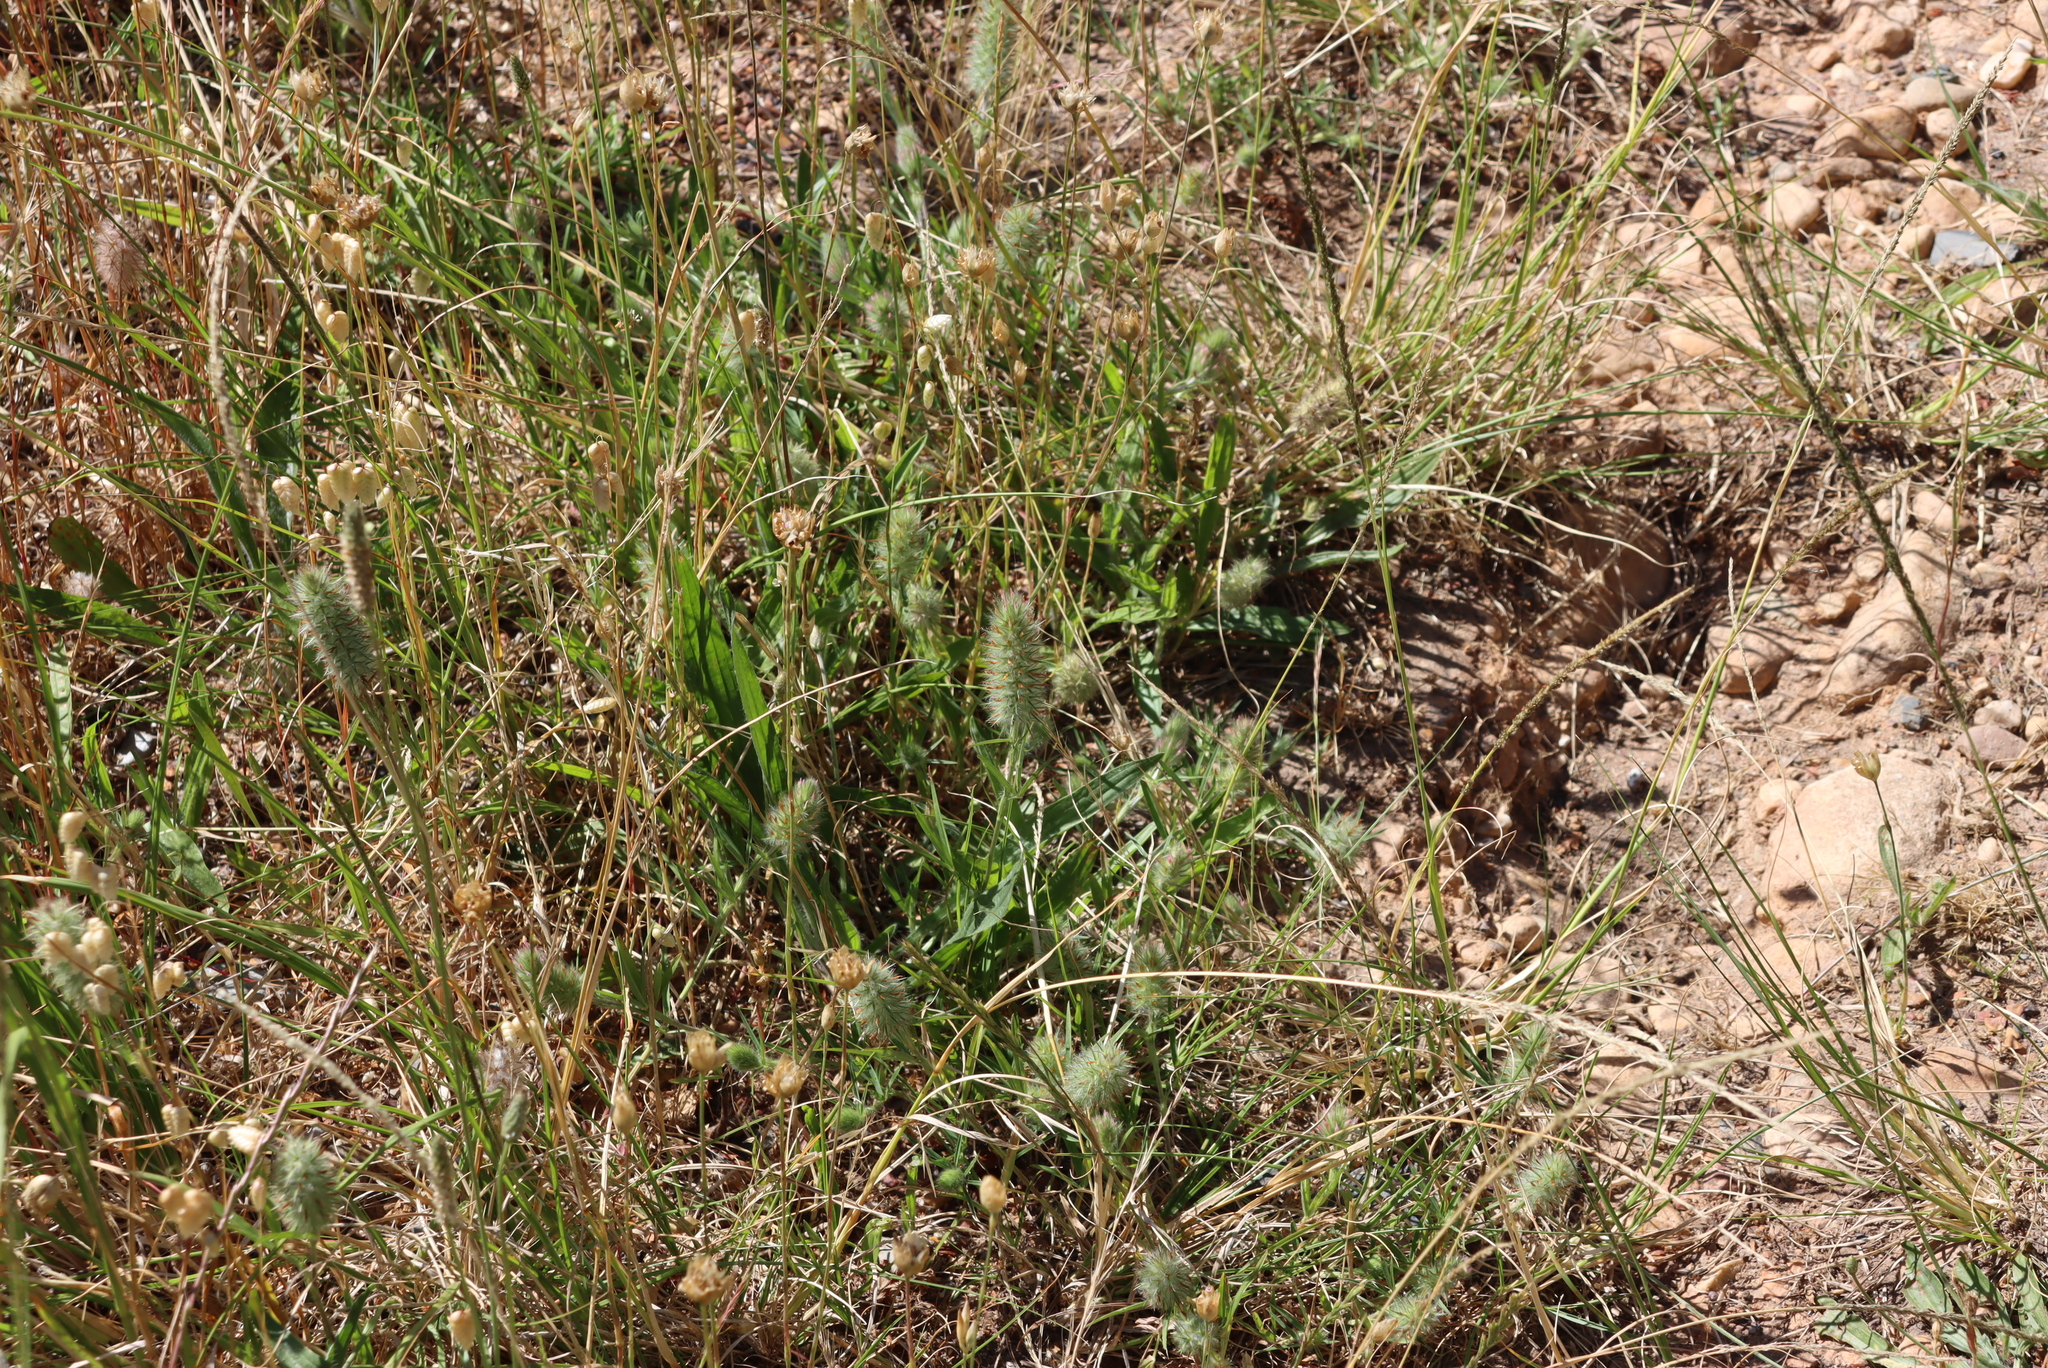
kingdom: Plantae
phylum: Tracheophyta
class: Magnoliopsida
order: Fabales
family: Fabaceae
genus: Trifolium
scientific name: Trifolium angustifolium
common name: Narrow clover
